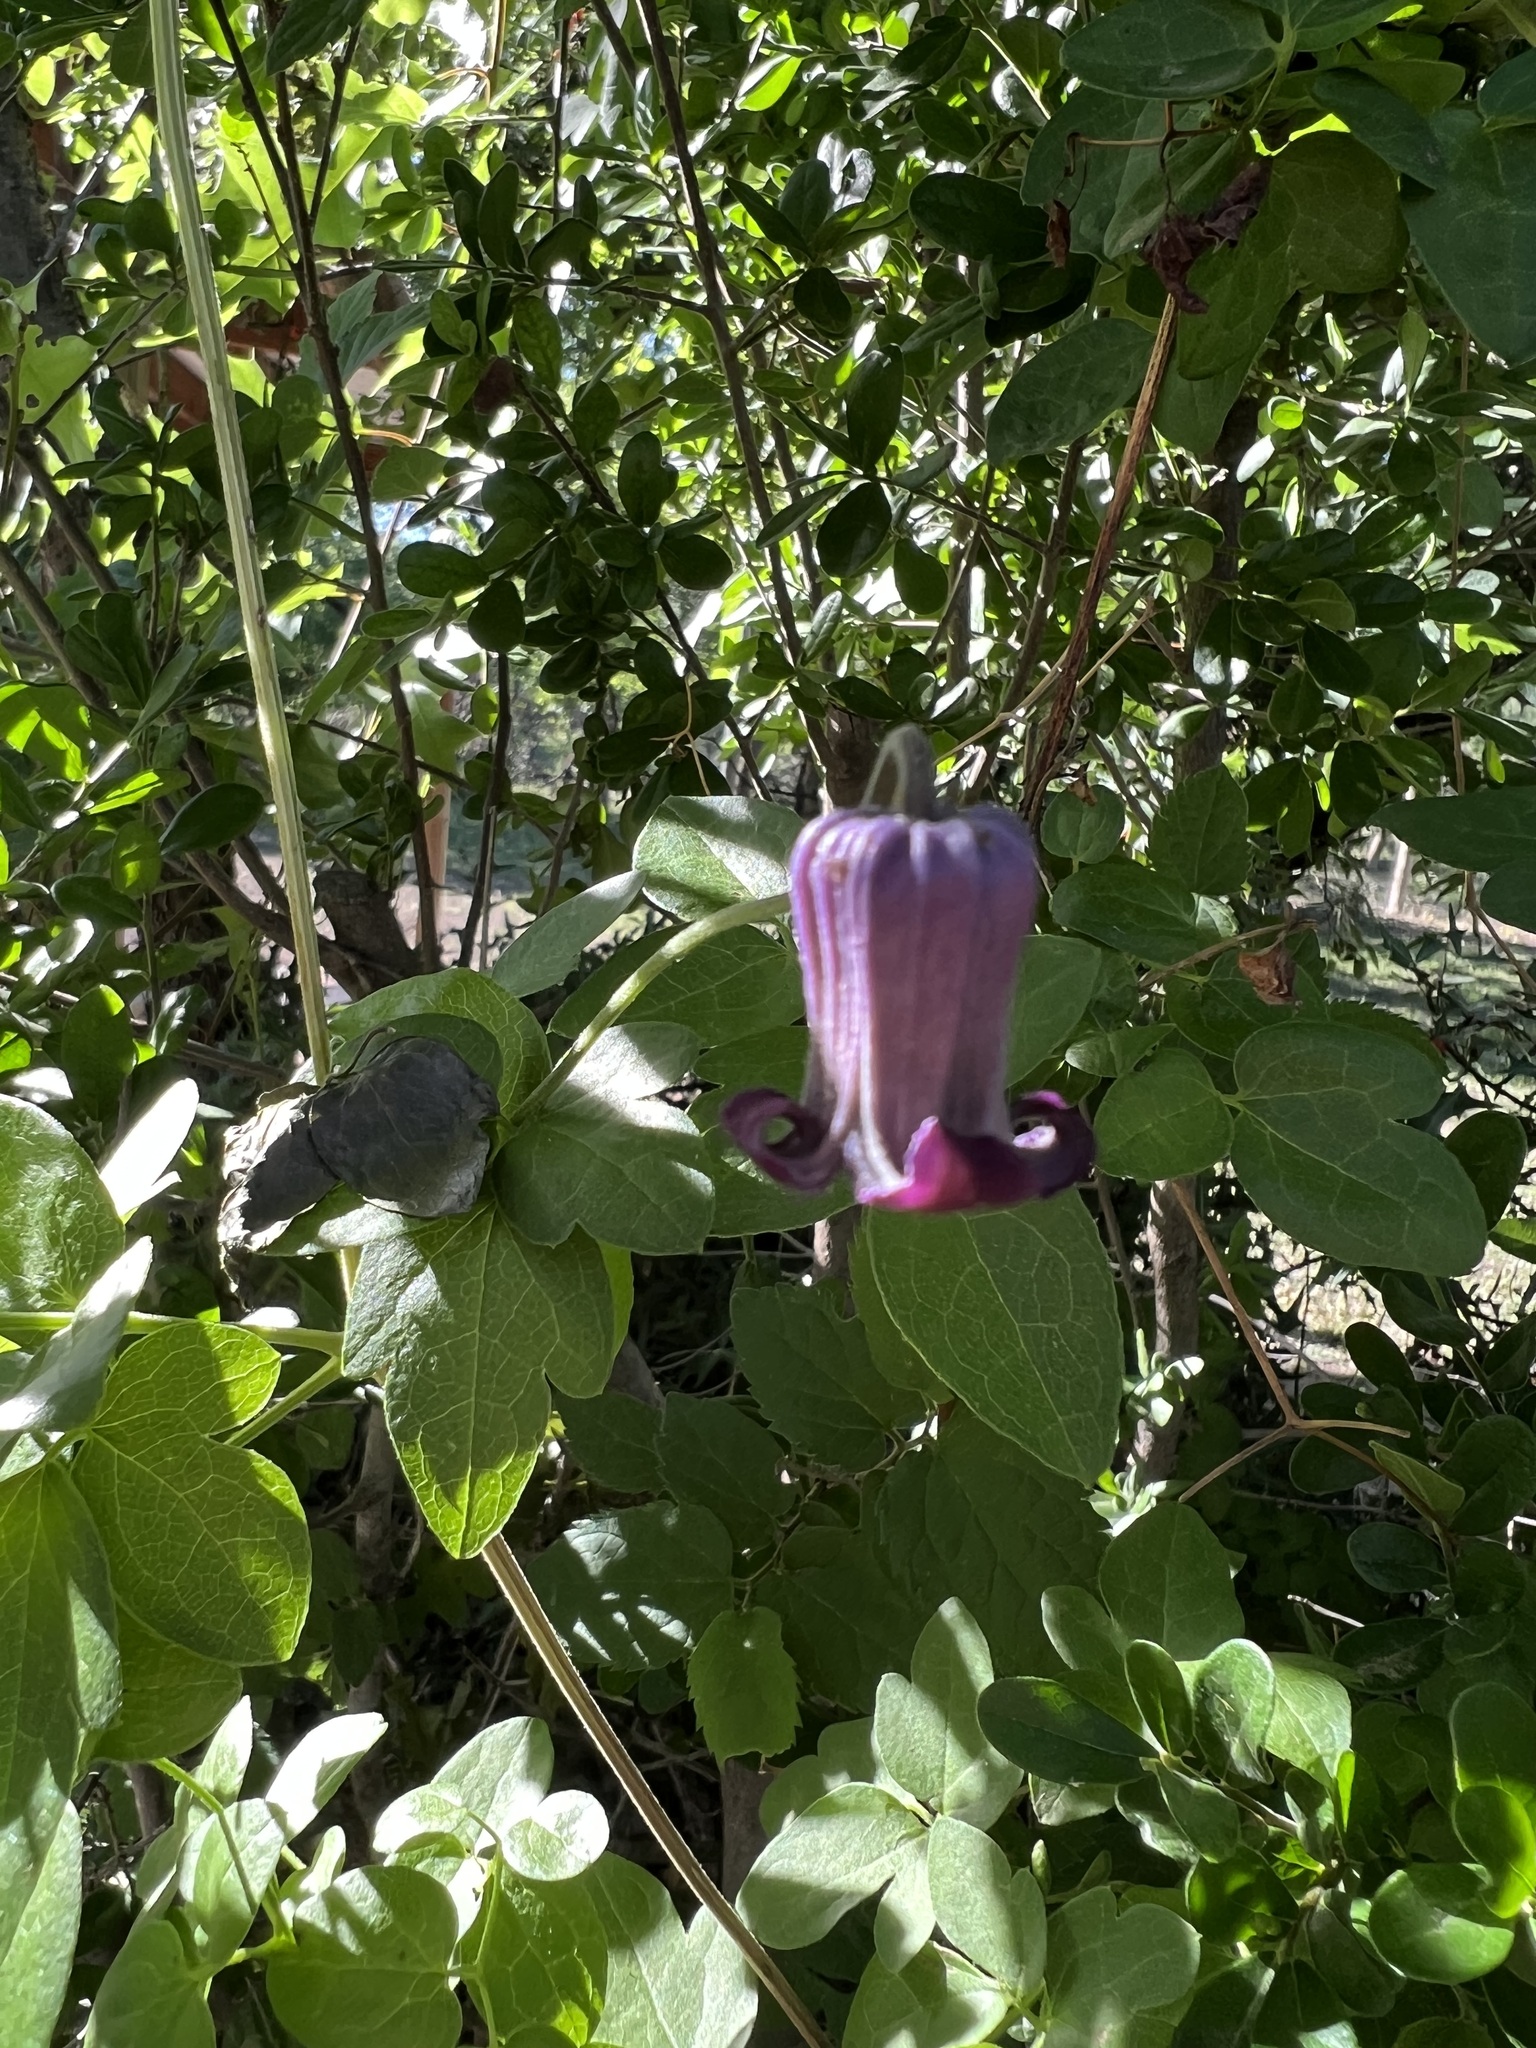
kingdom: Plantae
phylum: Tracheophyta
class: Magnoliopsida
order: Ranunculales
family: Ranunculaceae
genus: Clematis
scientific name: Clematis pitcheri
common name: Bellflower clematis
